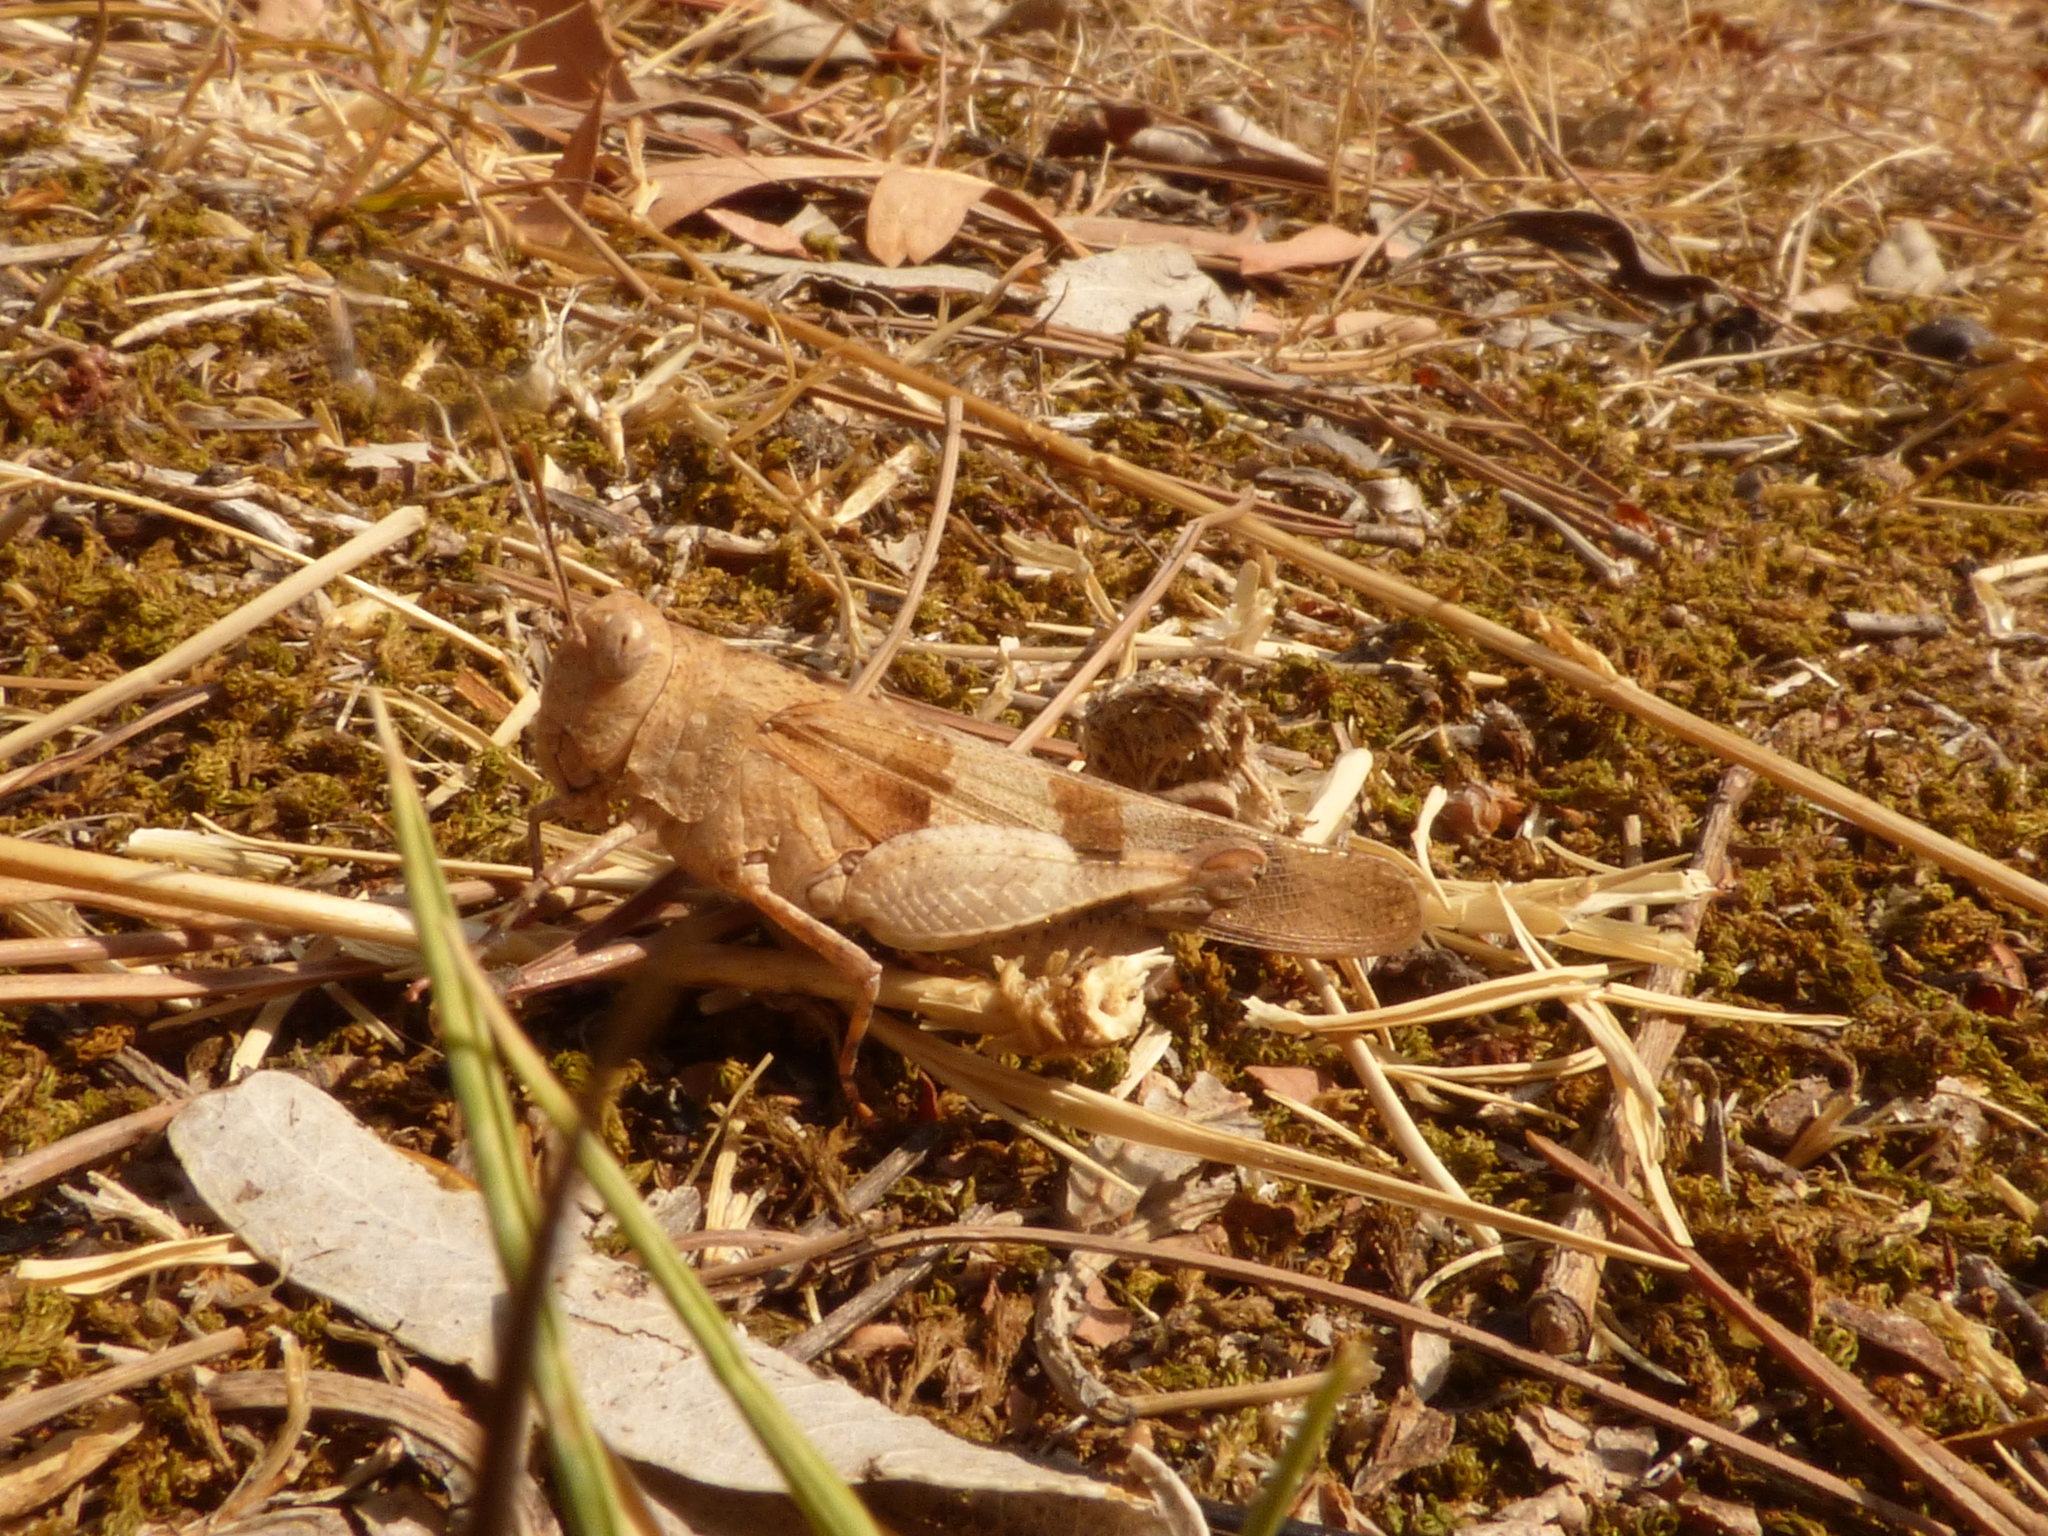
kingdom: Animalia
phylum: Arthropoda
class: Insecta
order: Orthoptera
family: Acrididae
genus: Oedipoda
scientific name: Oedipoda caerulescens
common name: Blue-winged grasshopper
